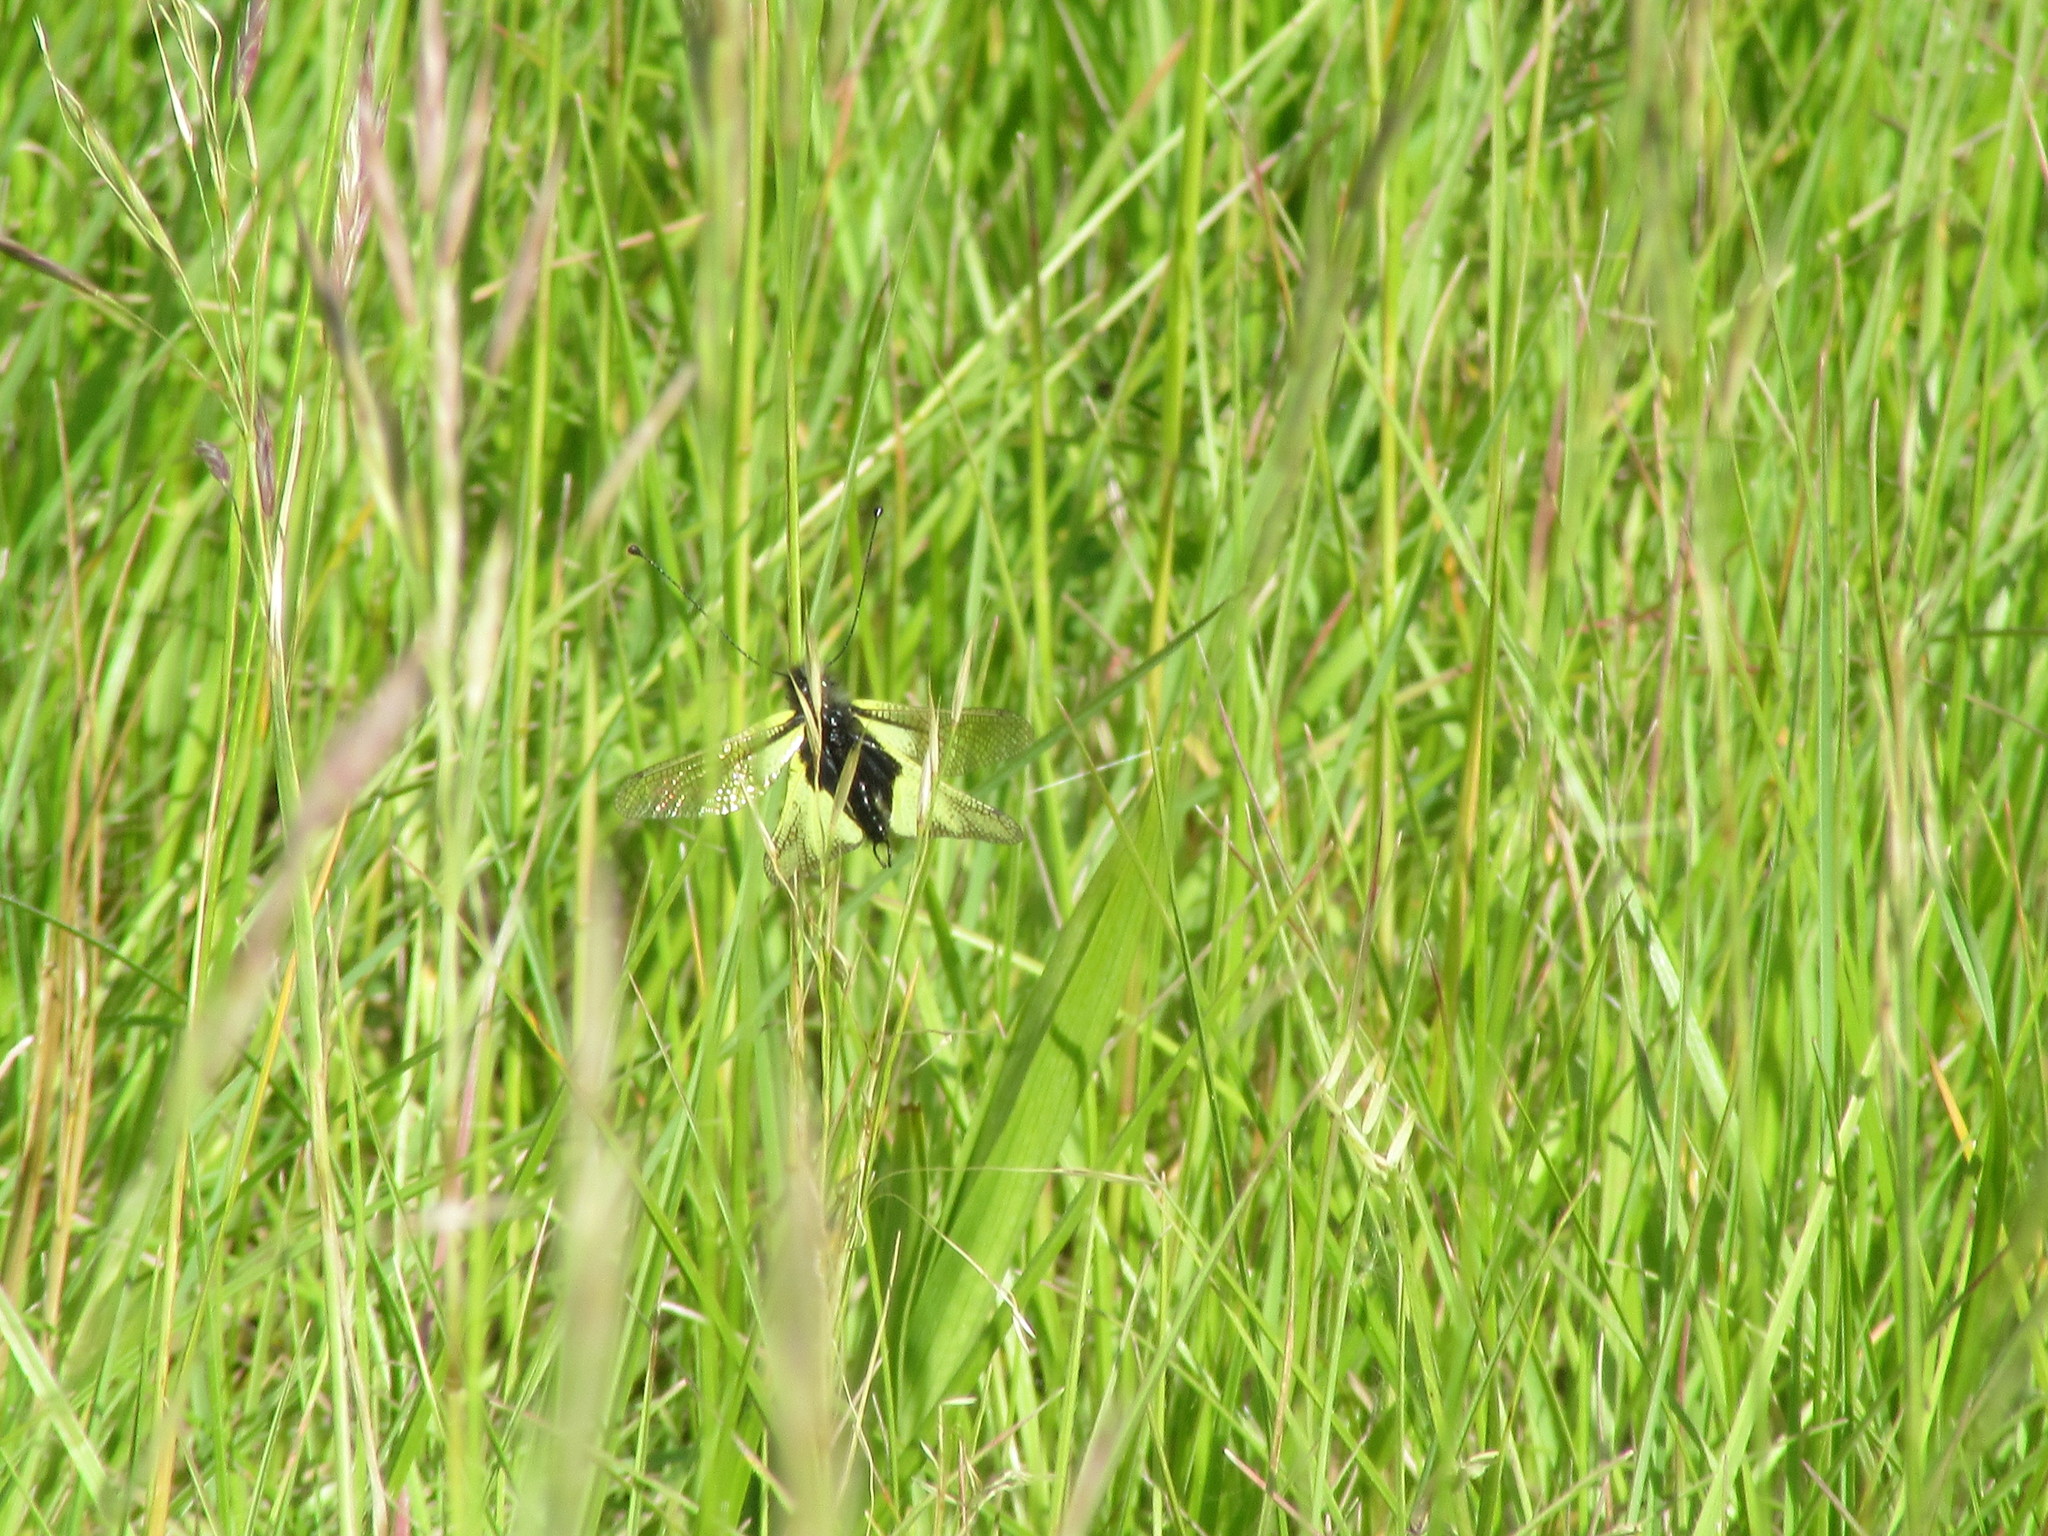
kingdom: Animalia
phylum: Arthropoda
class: Insecta
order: Neuroptera
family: Ascalaphidae
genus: Libelloides
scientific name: Libelloides coccajus
